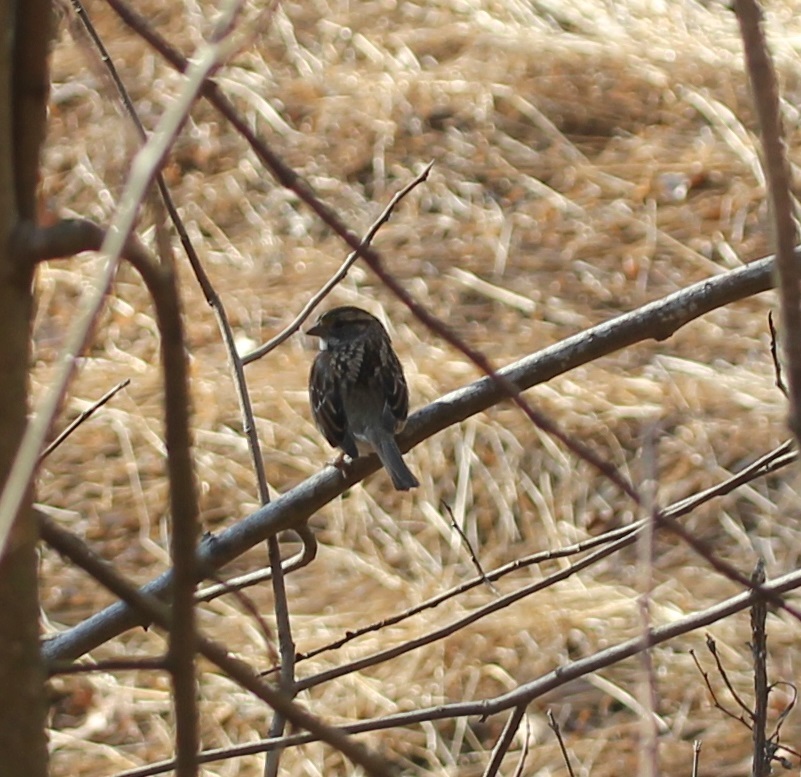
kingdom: Animalia
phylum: Chordata
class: Aves
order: Passeriformes
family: Passerellidae
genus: Zonotrichia
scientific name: Zonotrichia albicollis
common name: White-throated sparrow
